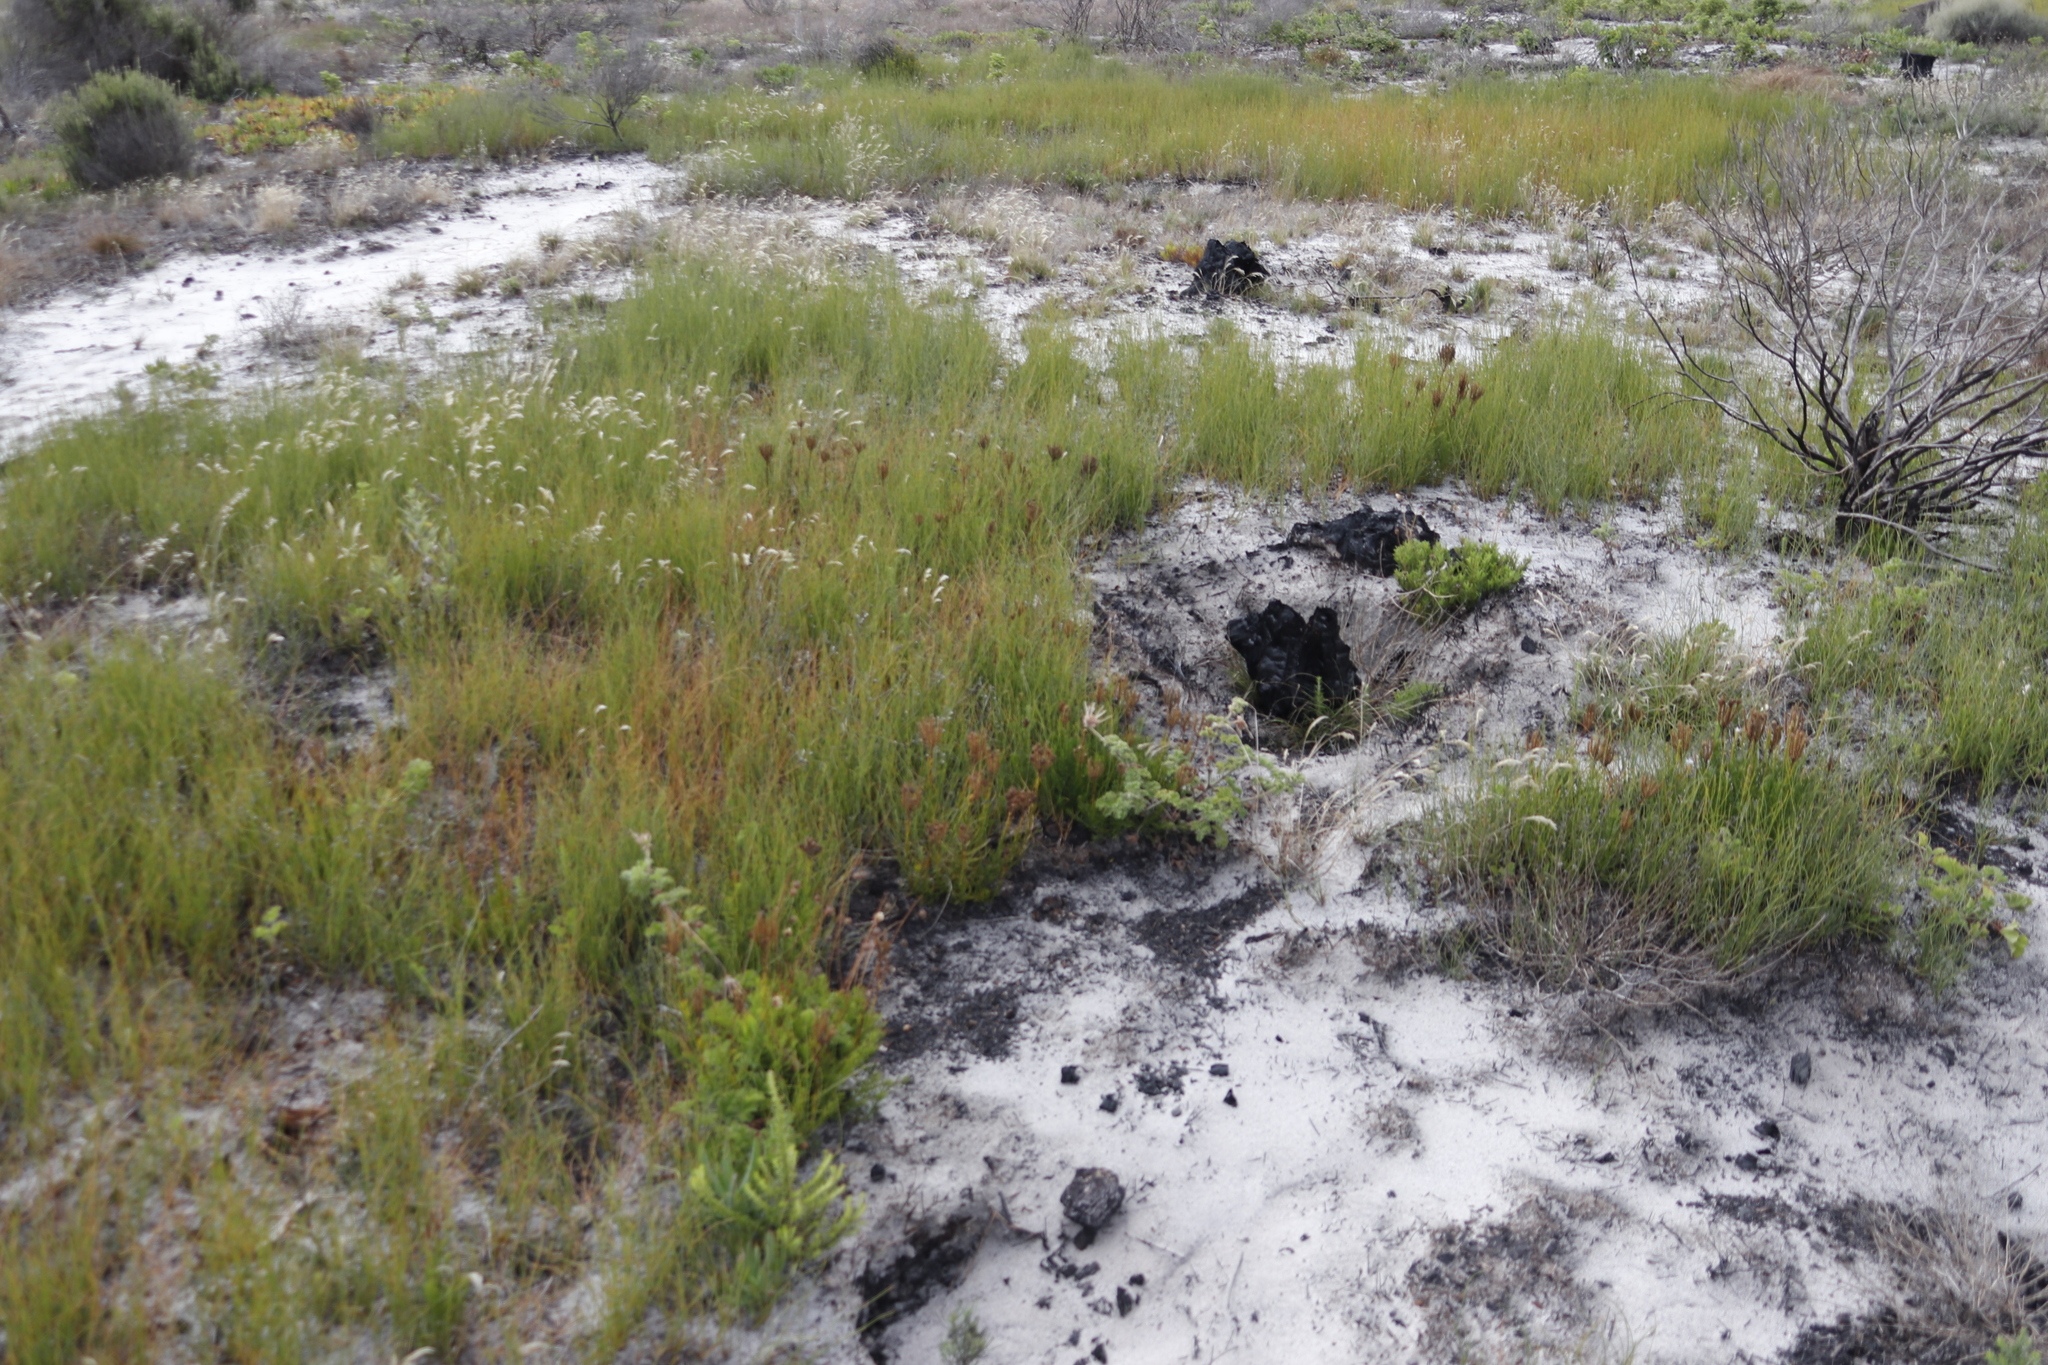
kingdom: Plantae
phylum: Tracheophyta
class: Magnoliopsida
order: Lamiales
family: Scrophulariaceae
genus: Pseudoselago
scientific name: Pseudoselago spuria
